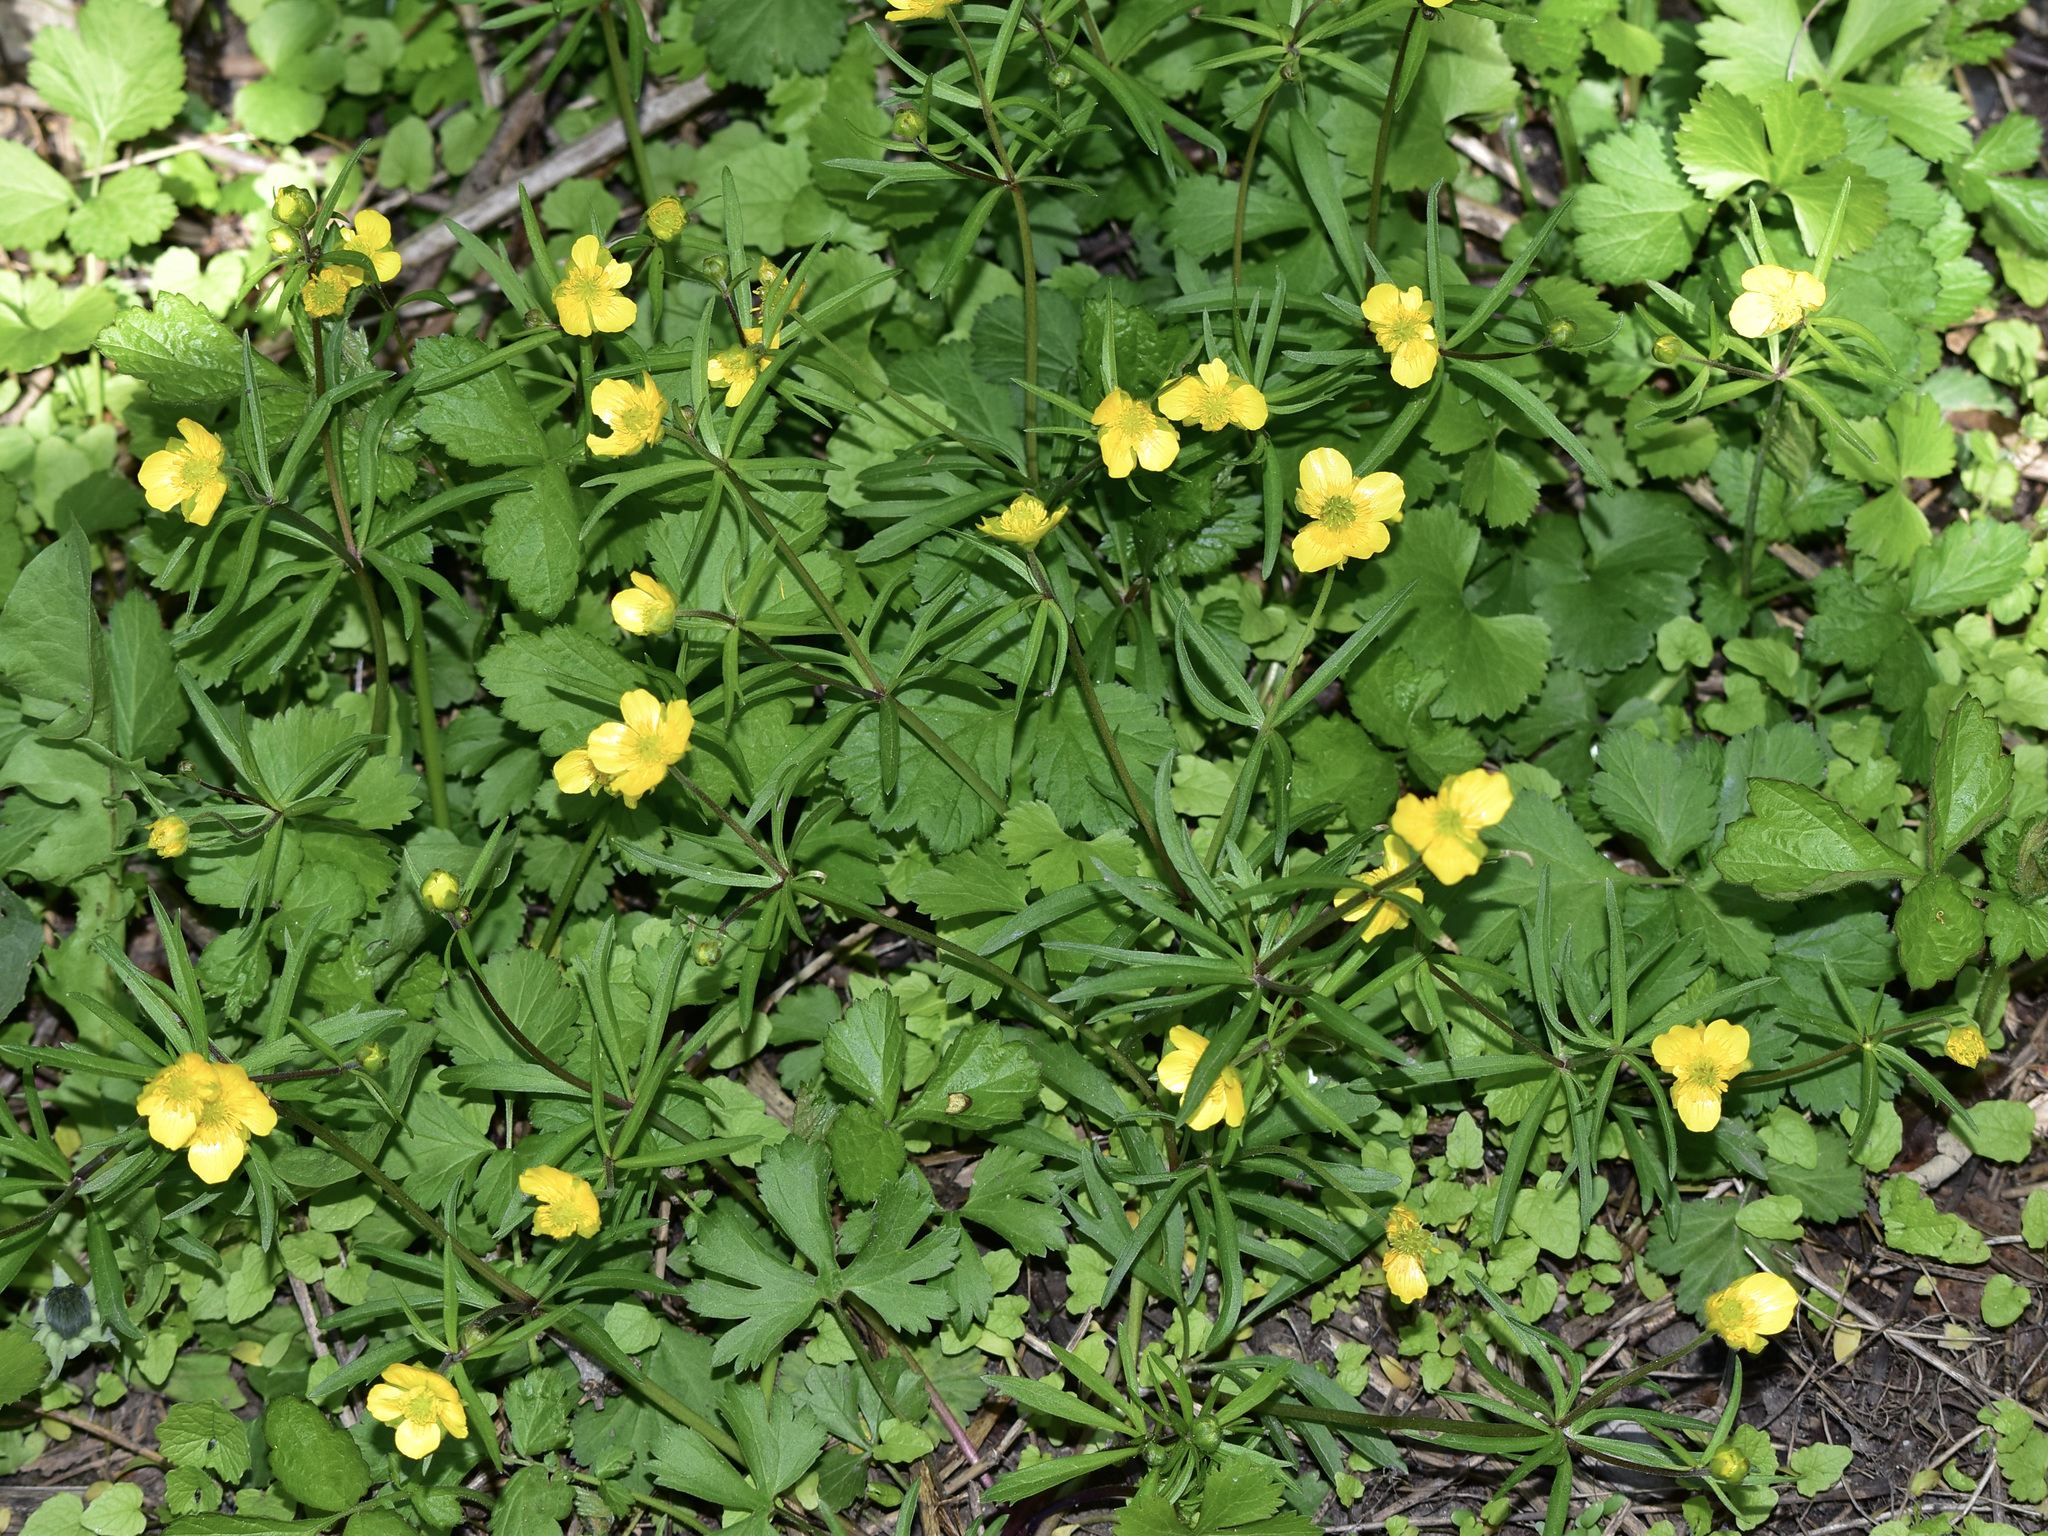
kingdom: Plantae
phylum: Tracheophyta
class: Magnoliopsida
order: Ranunculales
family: Ranunculaceae
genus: Ranunculus
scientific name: Ranunculus auricomus
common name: Goldilocks buttercup
